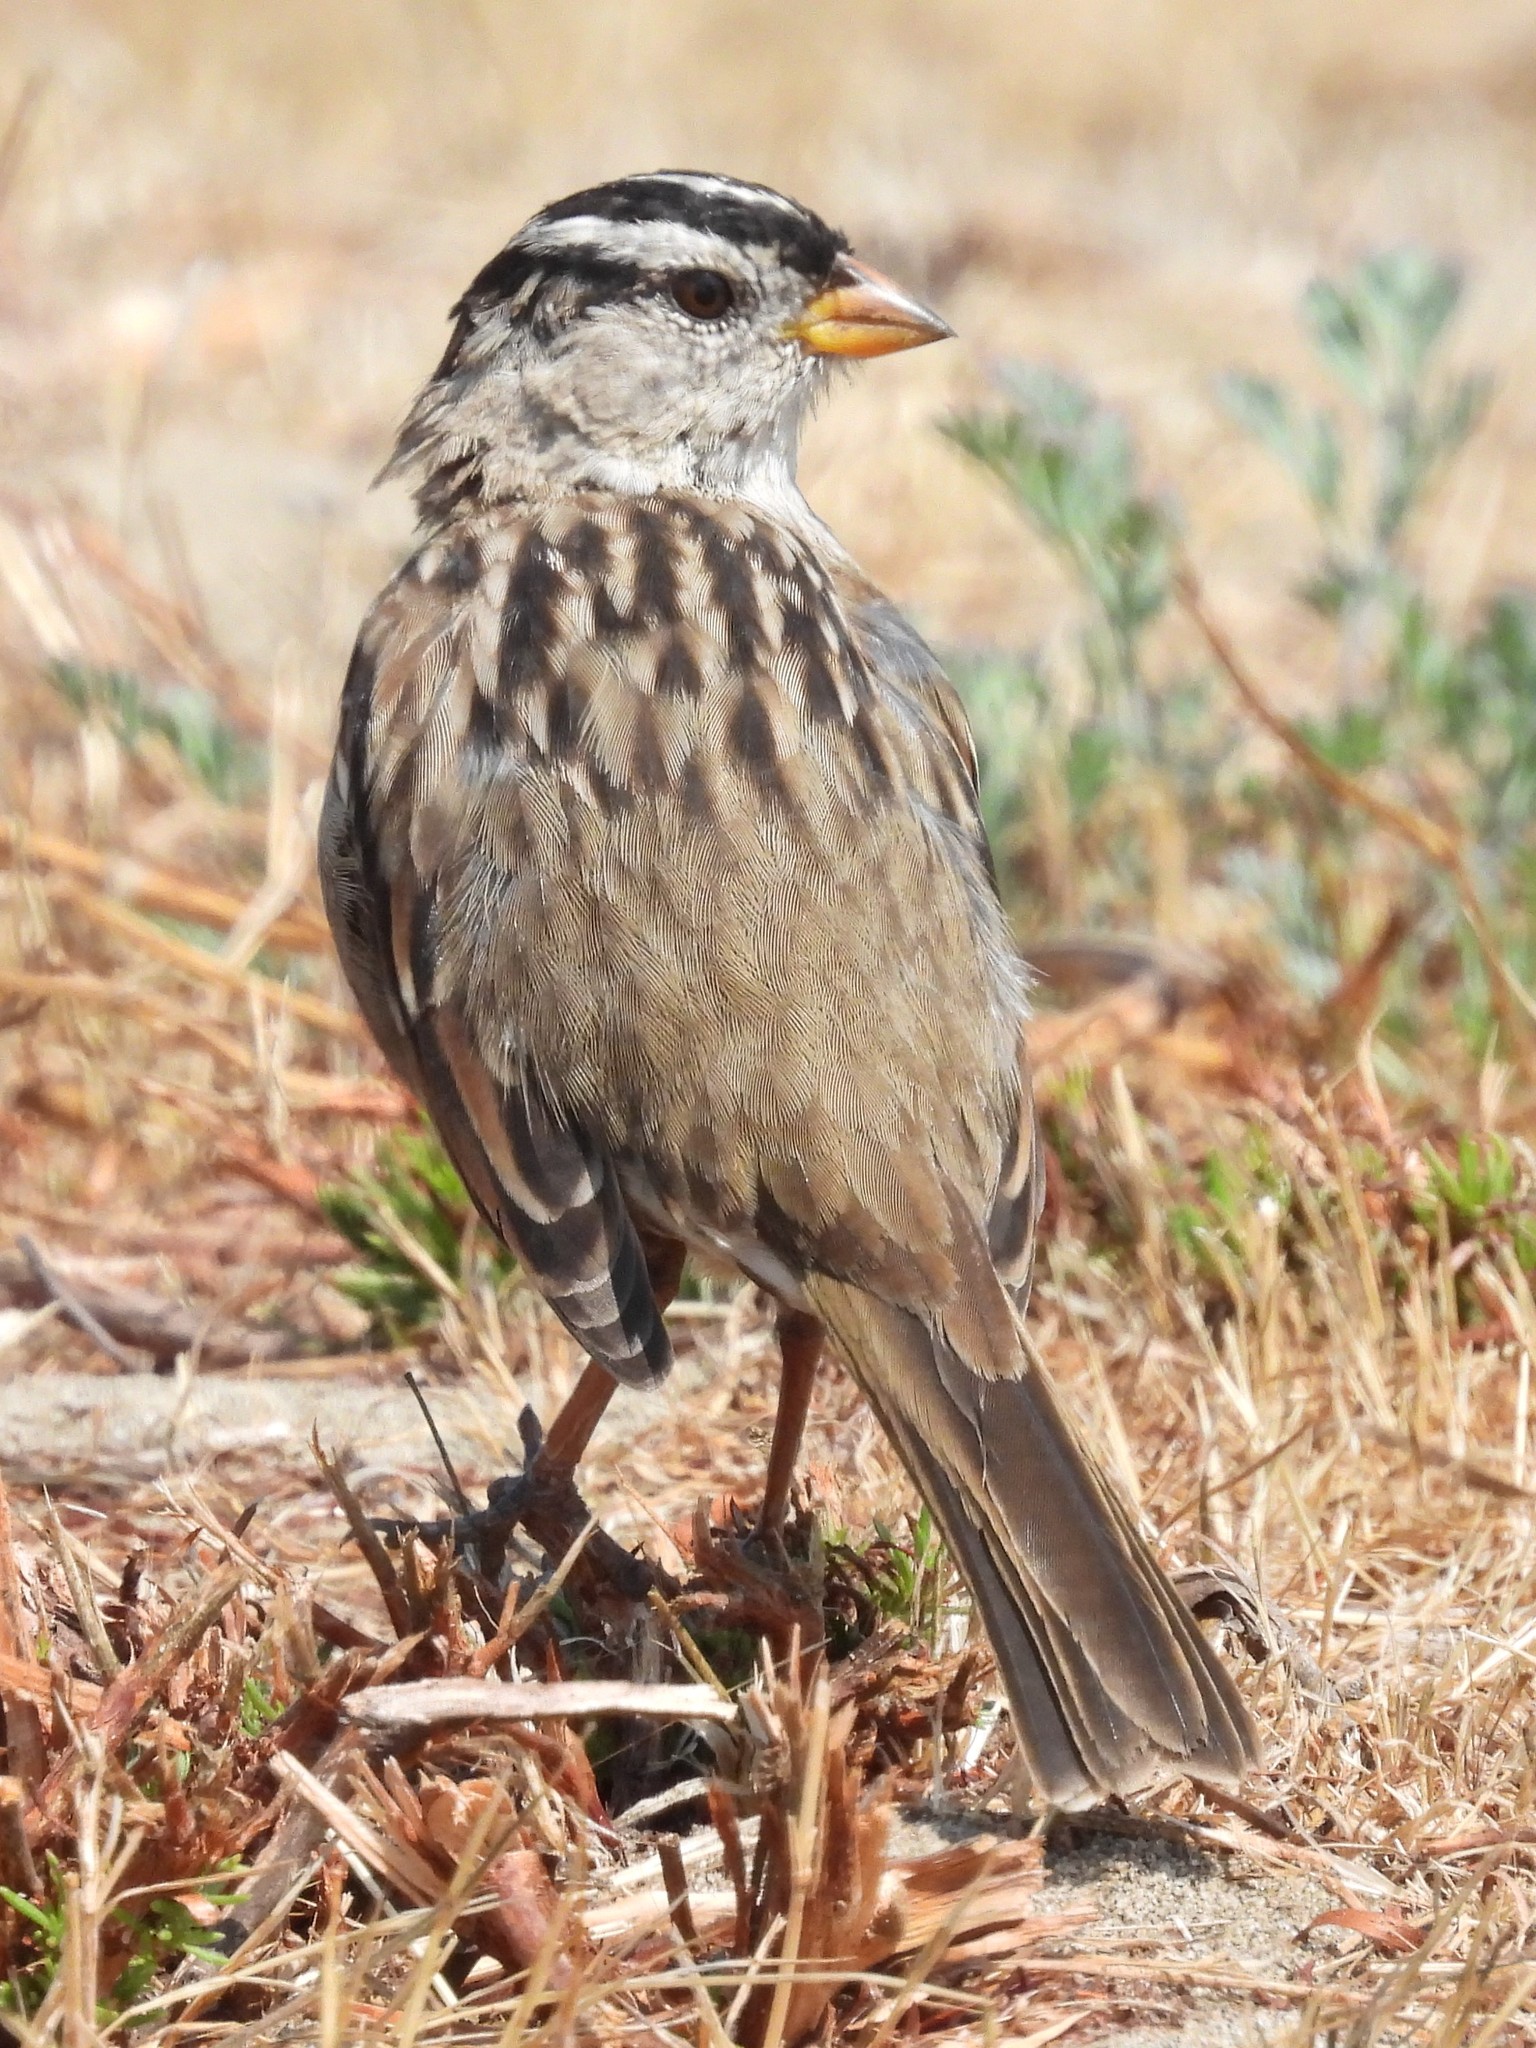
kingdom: Animalia
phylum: Chordata
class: Aves
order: Passeriformes
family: Passerellidae
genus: Zonotrichia
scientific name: Zonotrichia leucophrys
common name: White-crowned sparrow
